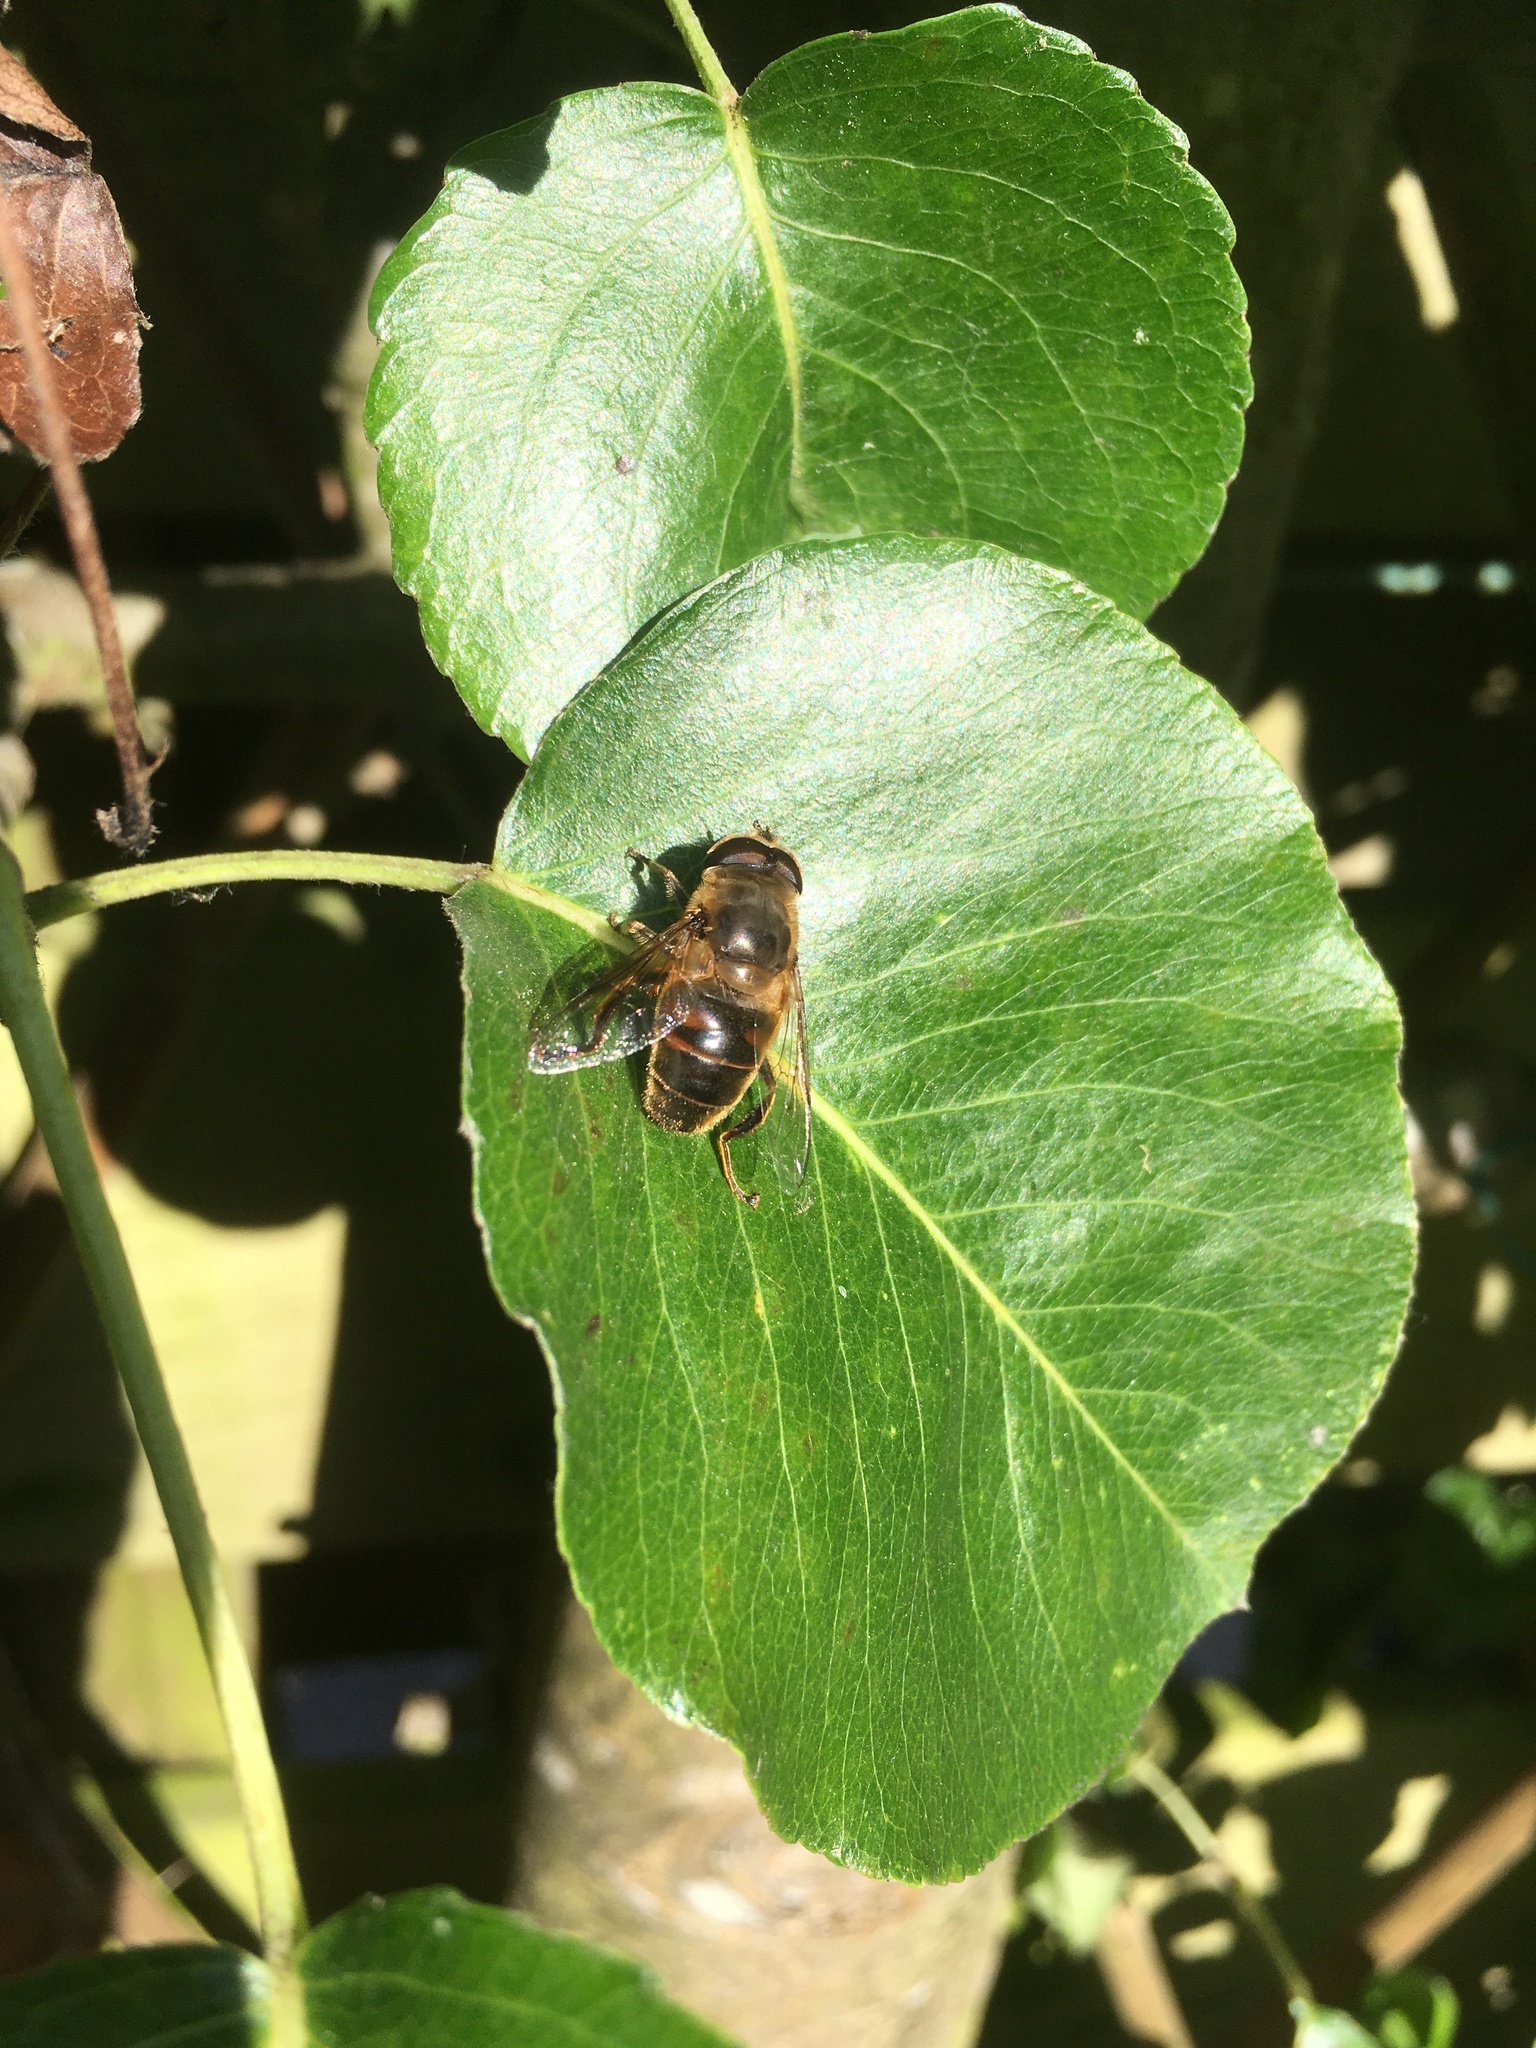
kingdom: Animalia
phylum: Arthropoda
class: Insecta
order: Diptera
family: Syrphidae
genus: Eristalis
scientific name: Eristalis tenax
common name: Drone fly
